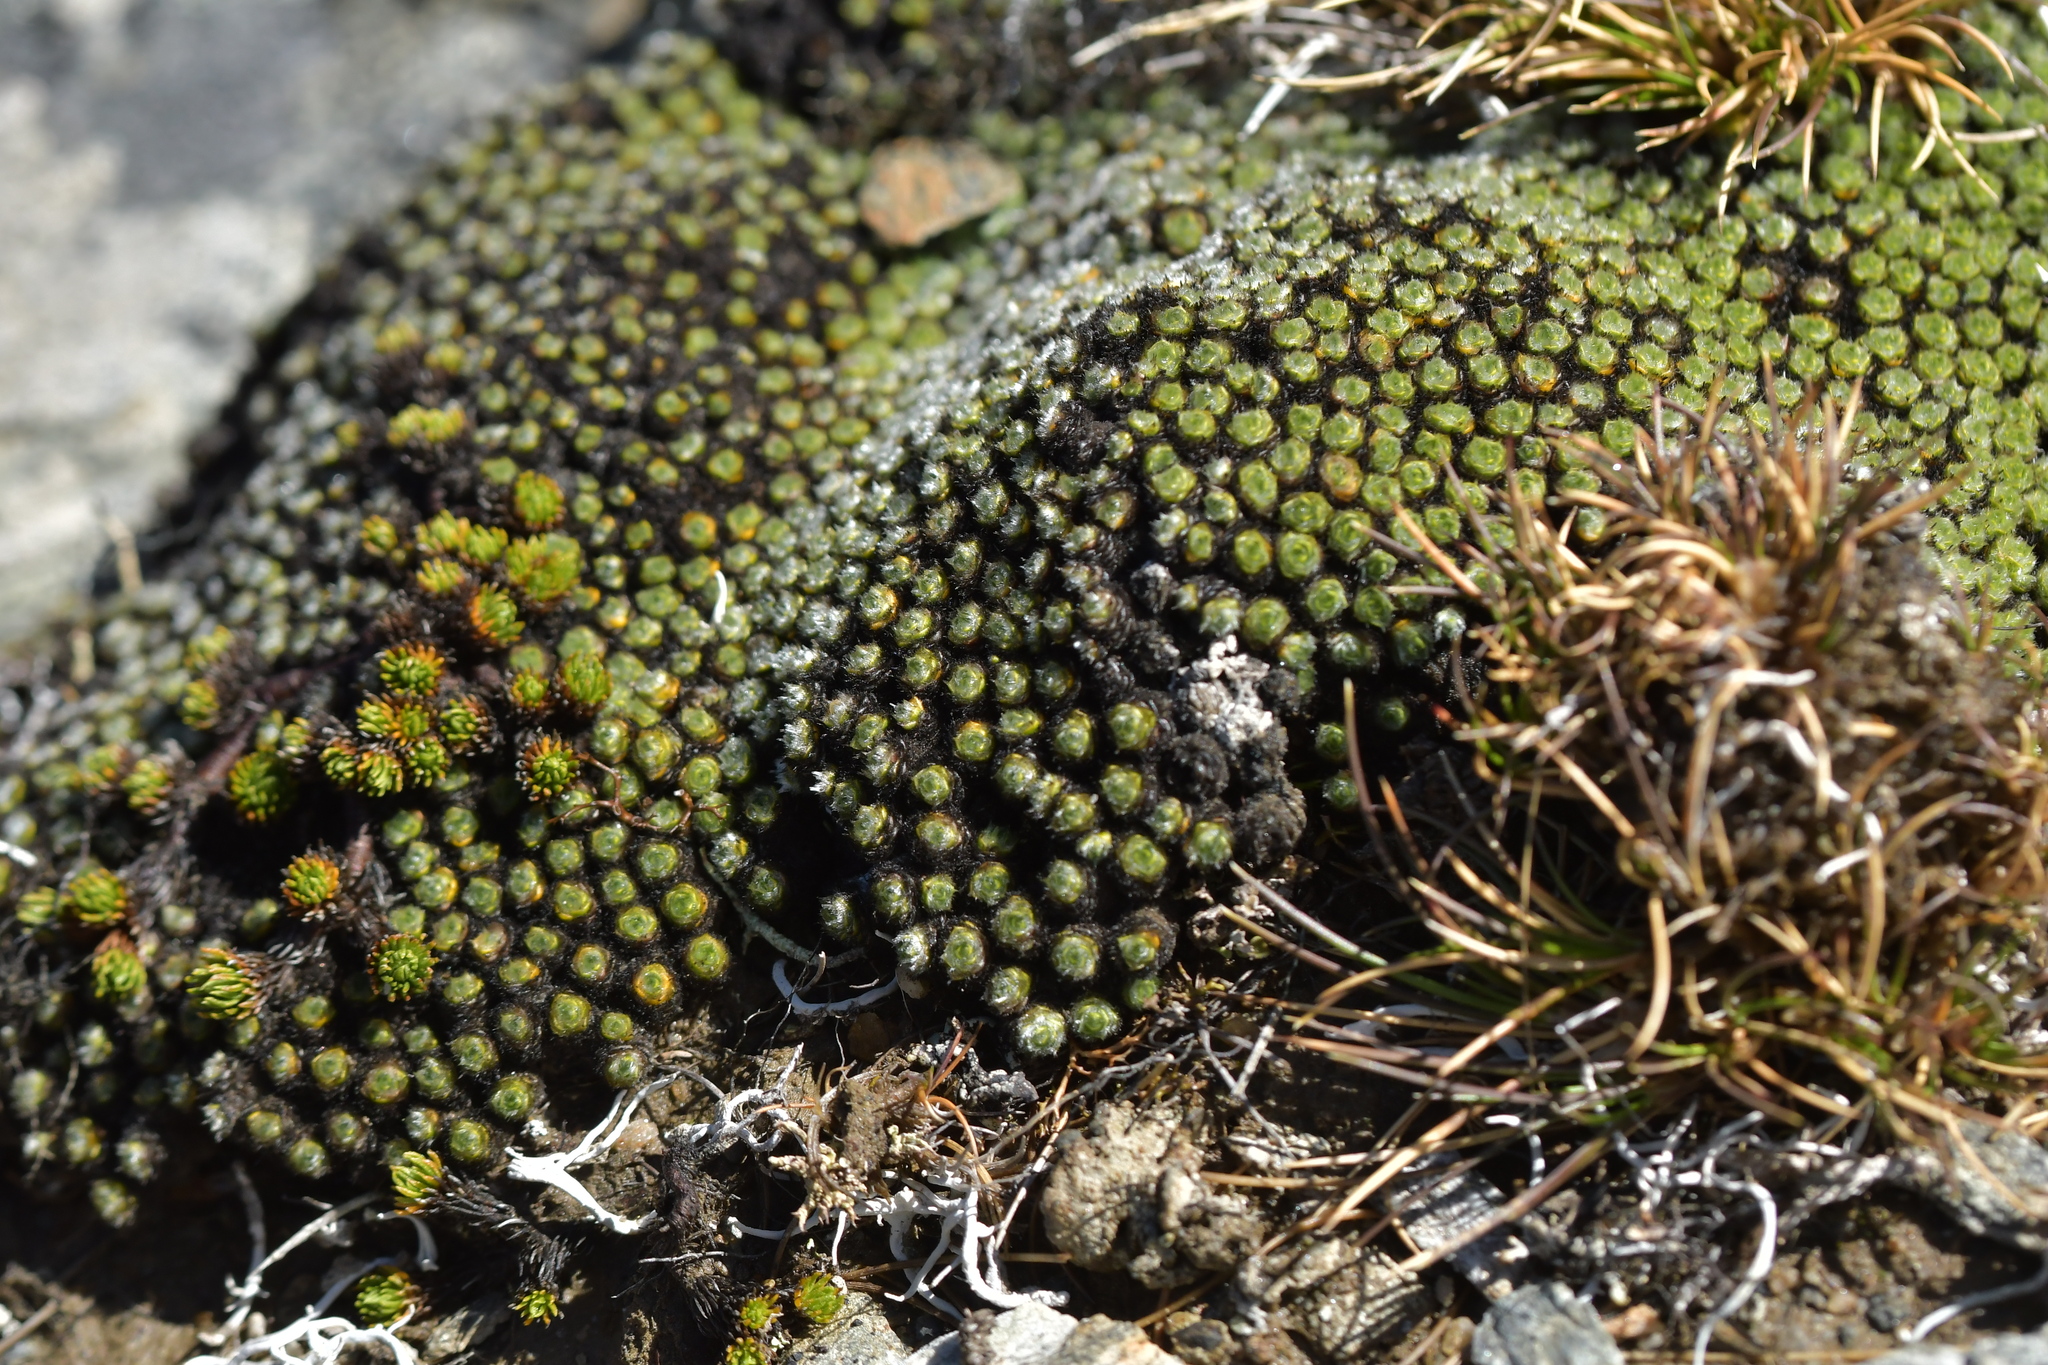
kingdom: Plantae
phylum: Tracheophyta
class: Magnoliopsida
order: Lamiales
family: Plantaginaceae
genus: Veronica
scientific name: Veronica thomsonii
